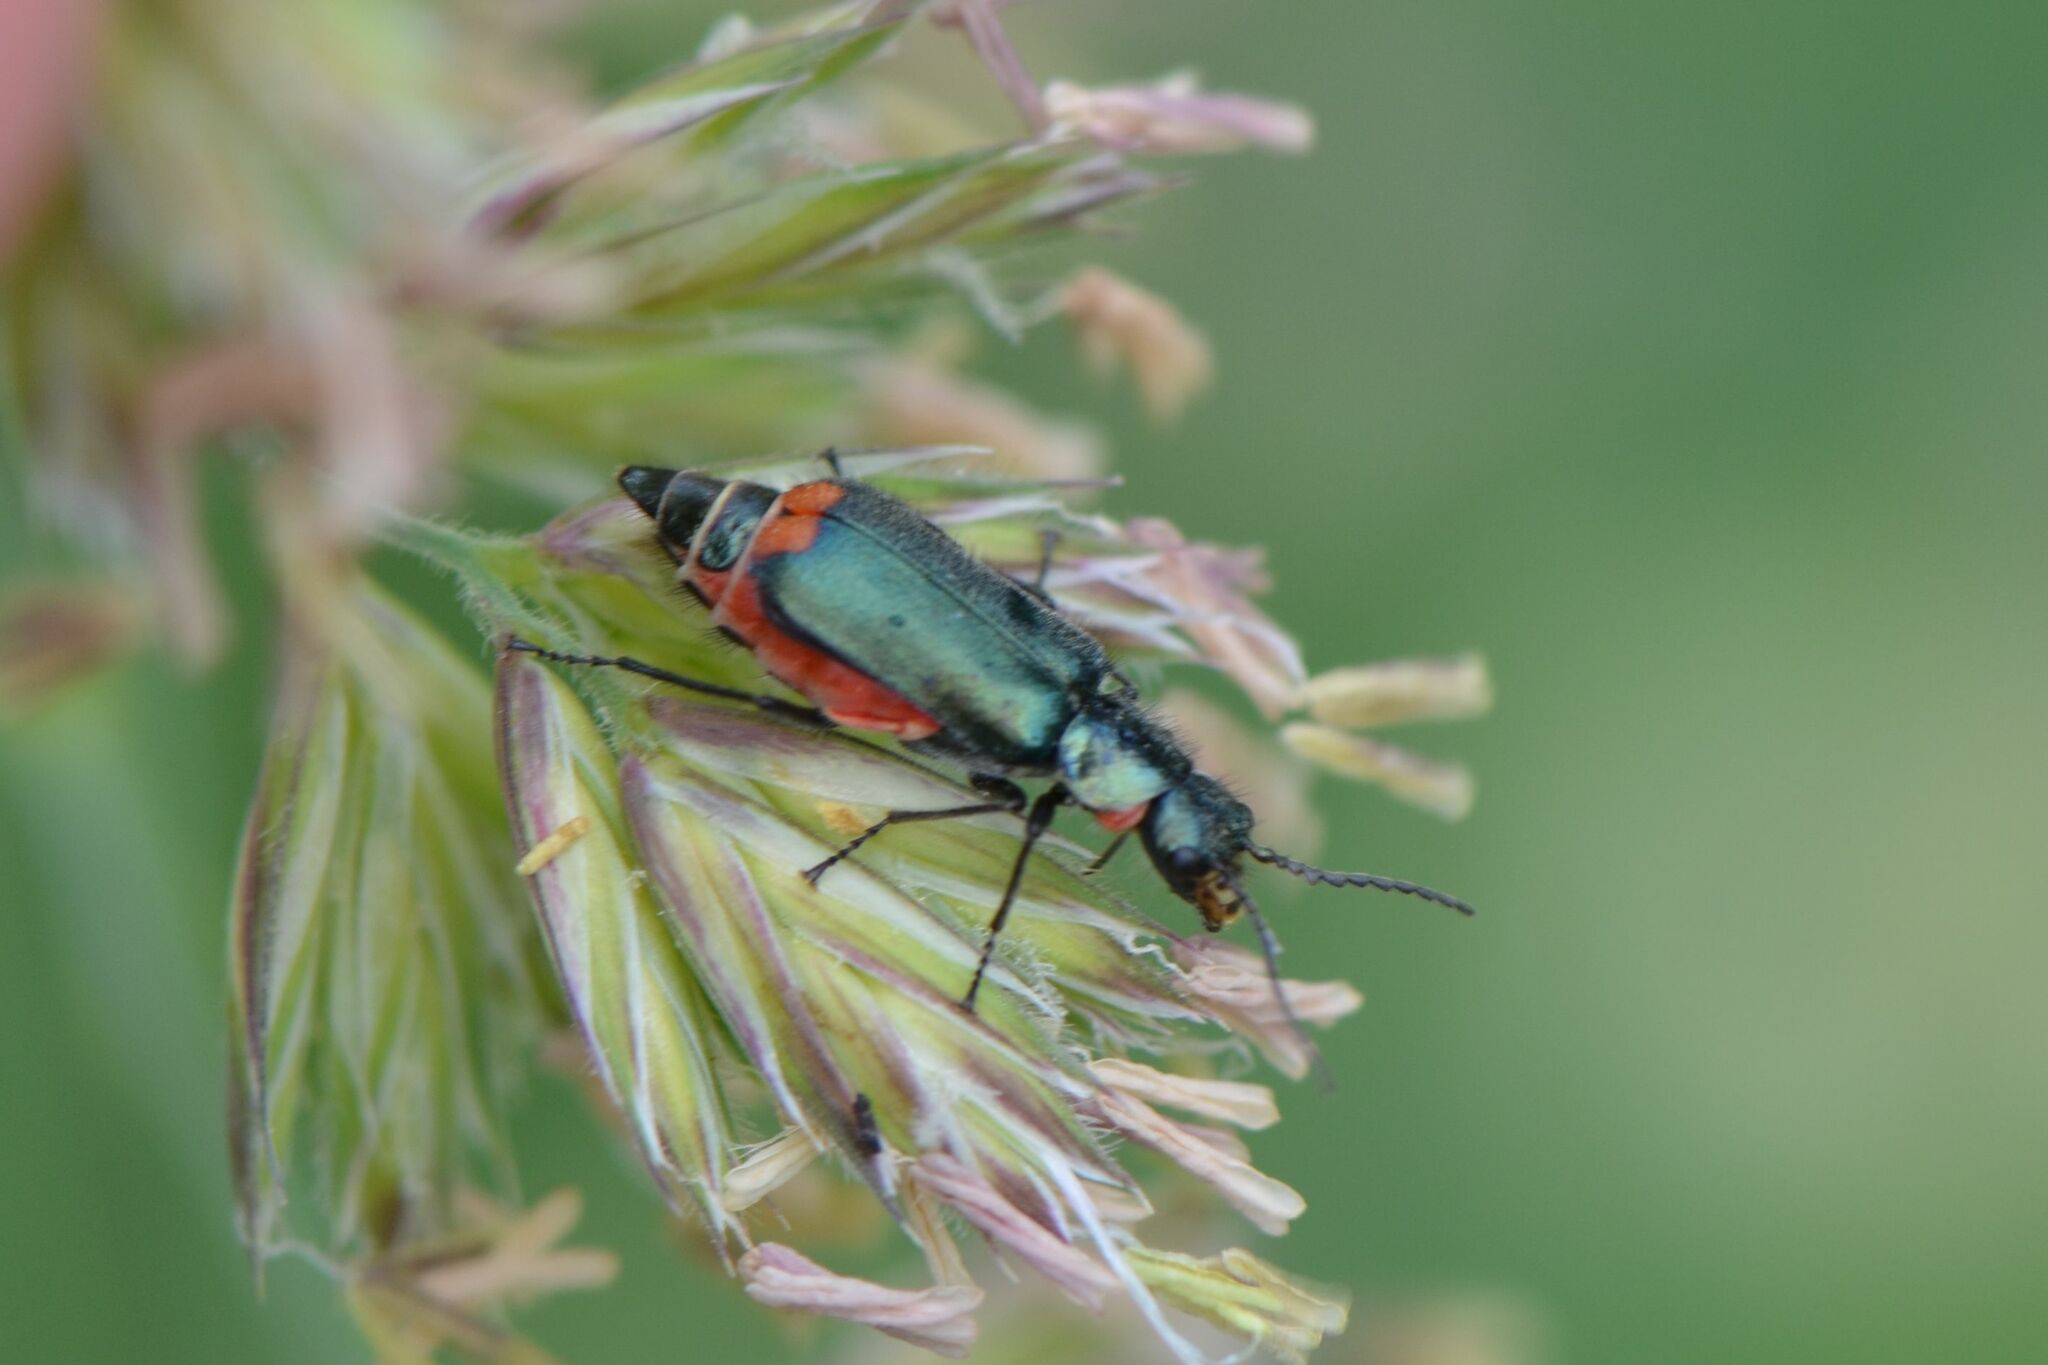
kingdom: Animalia
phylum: Arthropoda
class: Insecta
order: Coleoptera
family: Melyridae
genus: Malachius
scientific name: Malachius bipustulatus
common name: Malachite beetle
